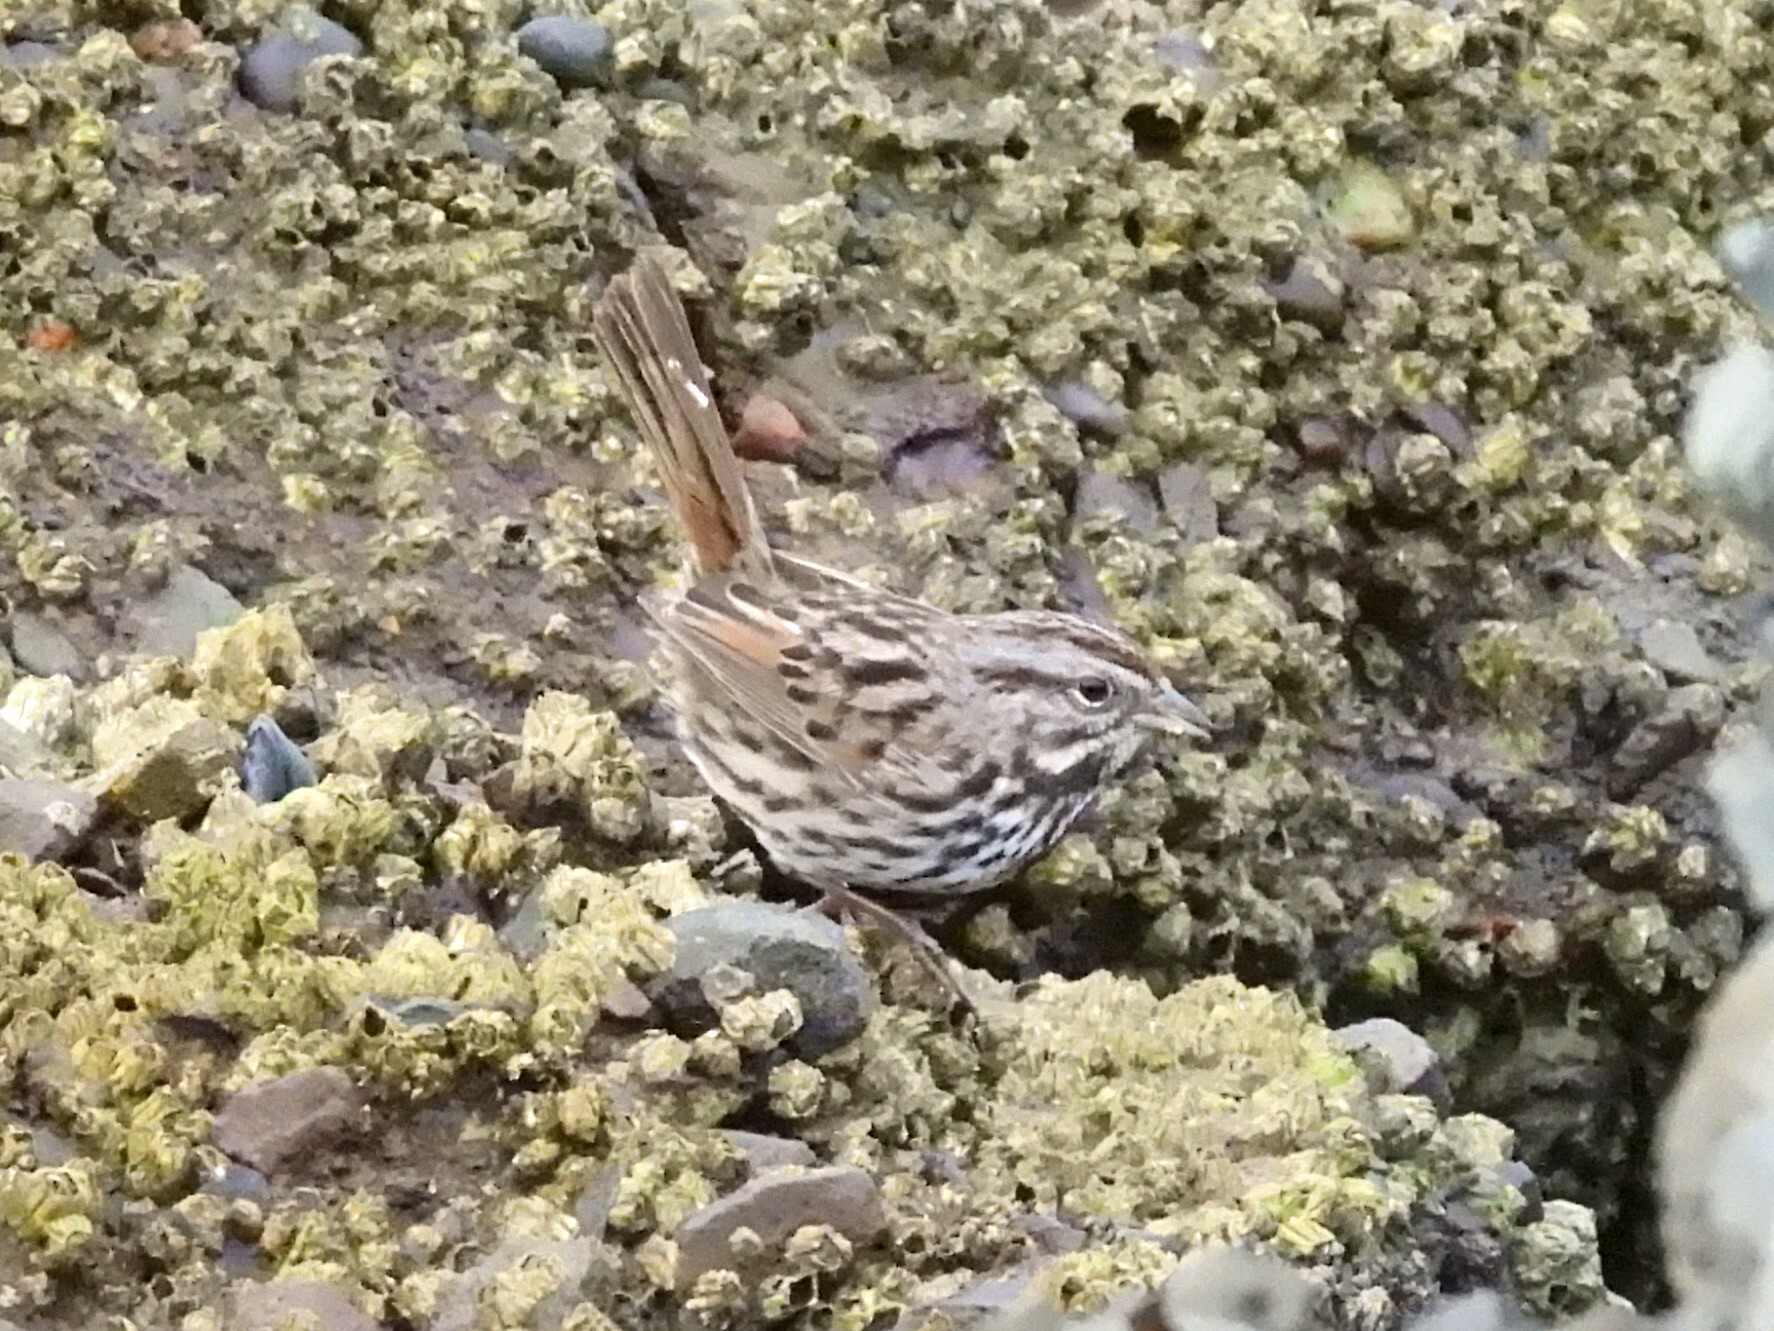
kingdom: Animalia
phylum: Chordata
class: Aves
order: Passeriformes
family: Passerellidae
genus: Melospiza
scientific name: Melospiza melodia
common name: Song sparrow
